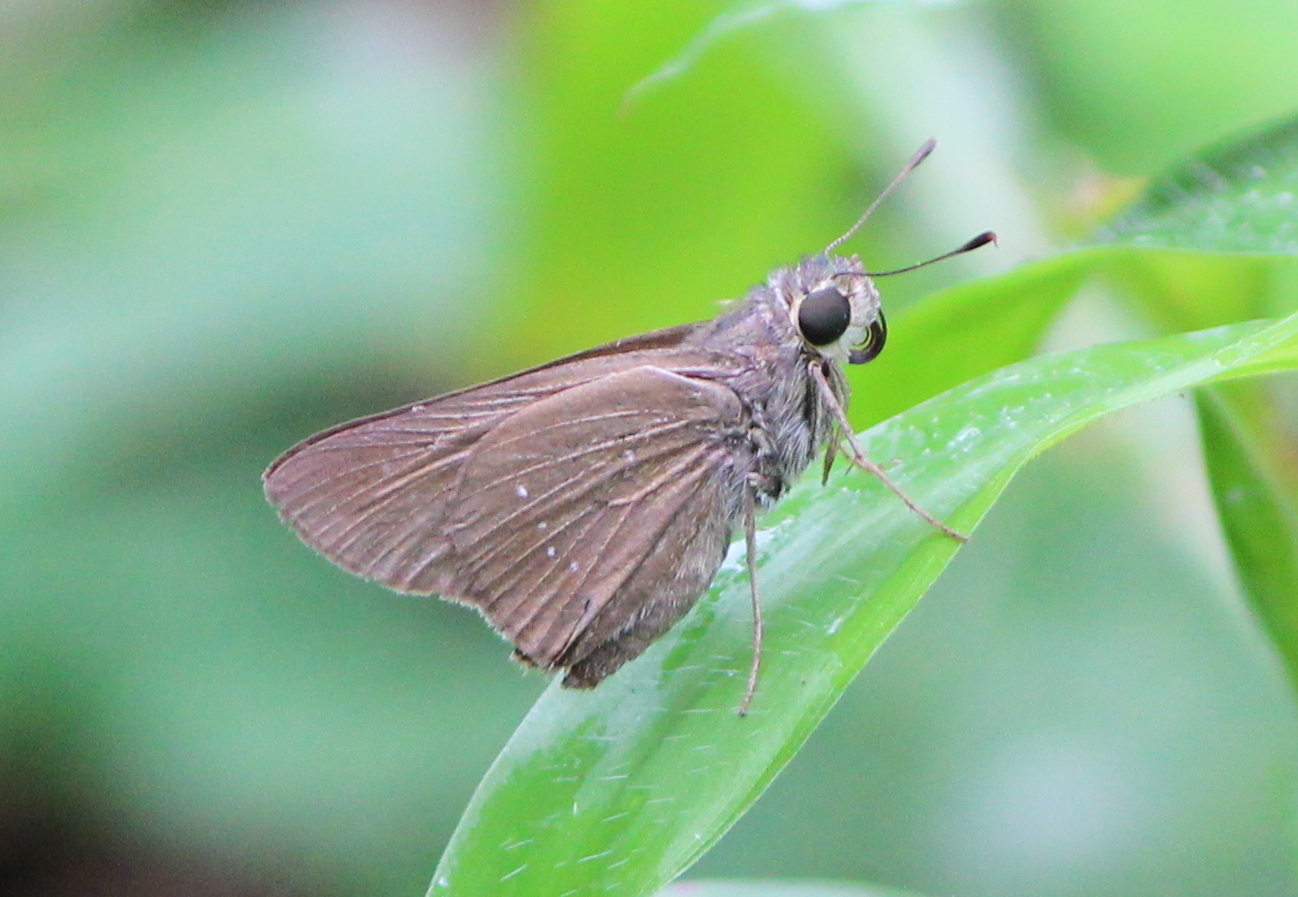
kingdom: Animalia
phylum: Arthropoda
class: Insecta
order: Lepidoptera
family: Hesperiidae
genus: Pelopidas
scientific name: Pelopidas
